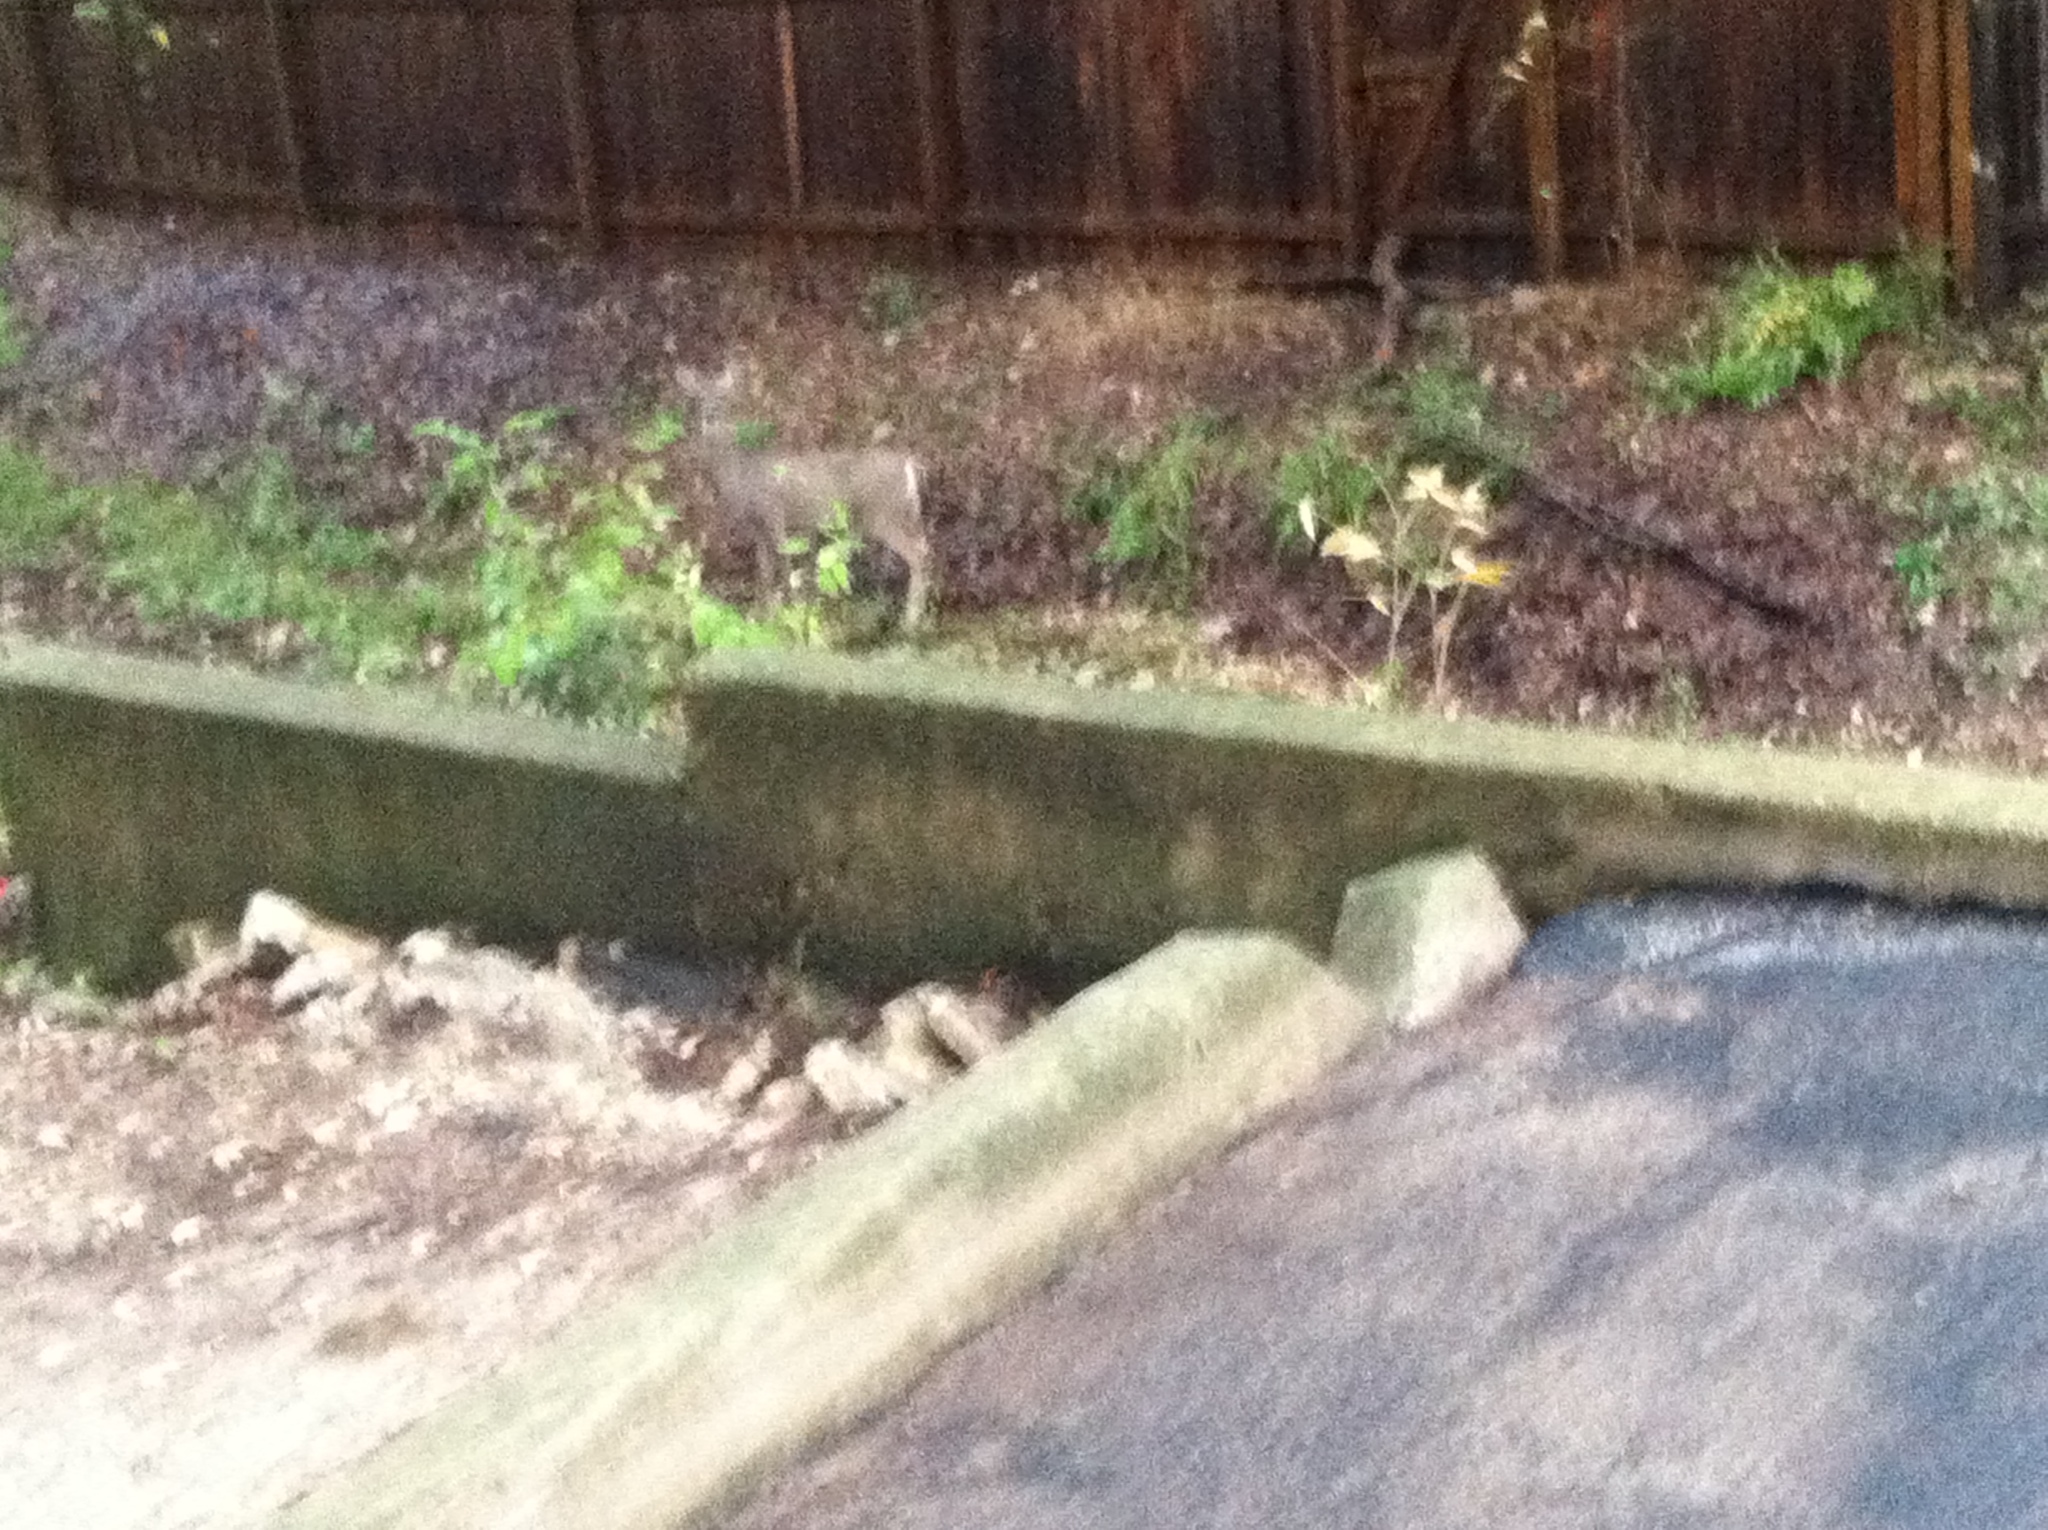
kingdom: Animalia
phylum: Chordata
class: Mammalia
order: Artiodactyla
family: Cervidae
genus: Odocoileus
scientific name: Odocoileus virginianus
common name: White-tailed deer
